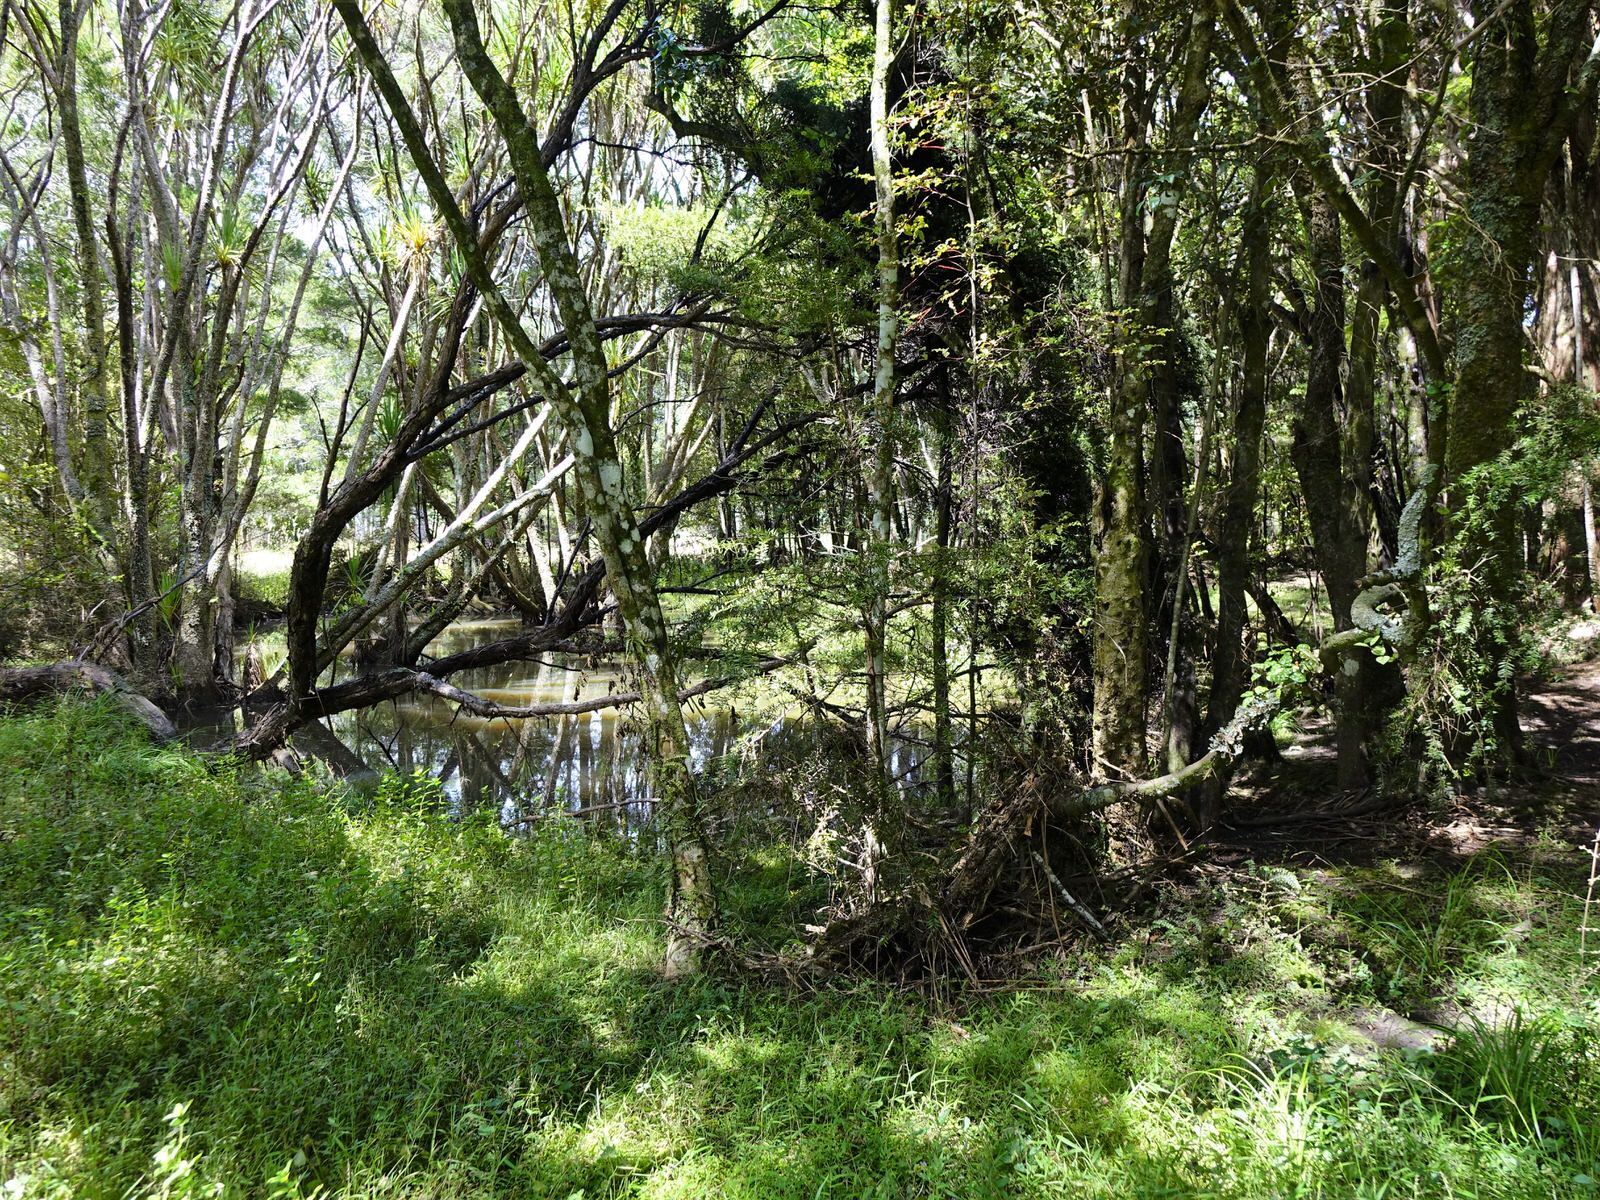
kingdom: Plantae
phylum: Tracheophyta
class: Magnoliopsida
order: Myrtales
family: Myrtaceae
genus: Lophomyrtus
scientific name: Lophomyrtus bullata
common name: Rama rama
